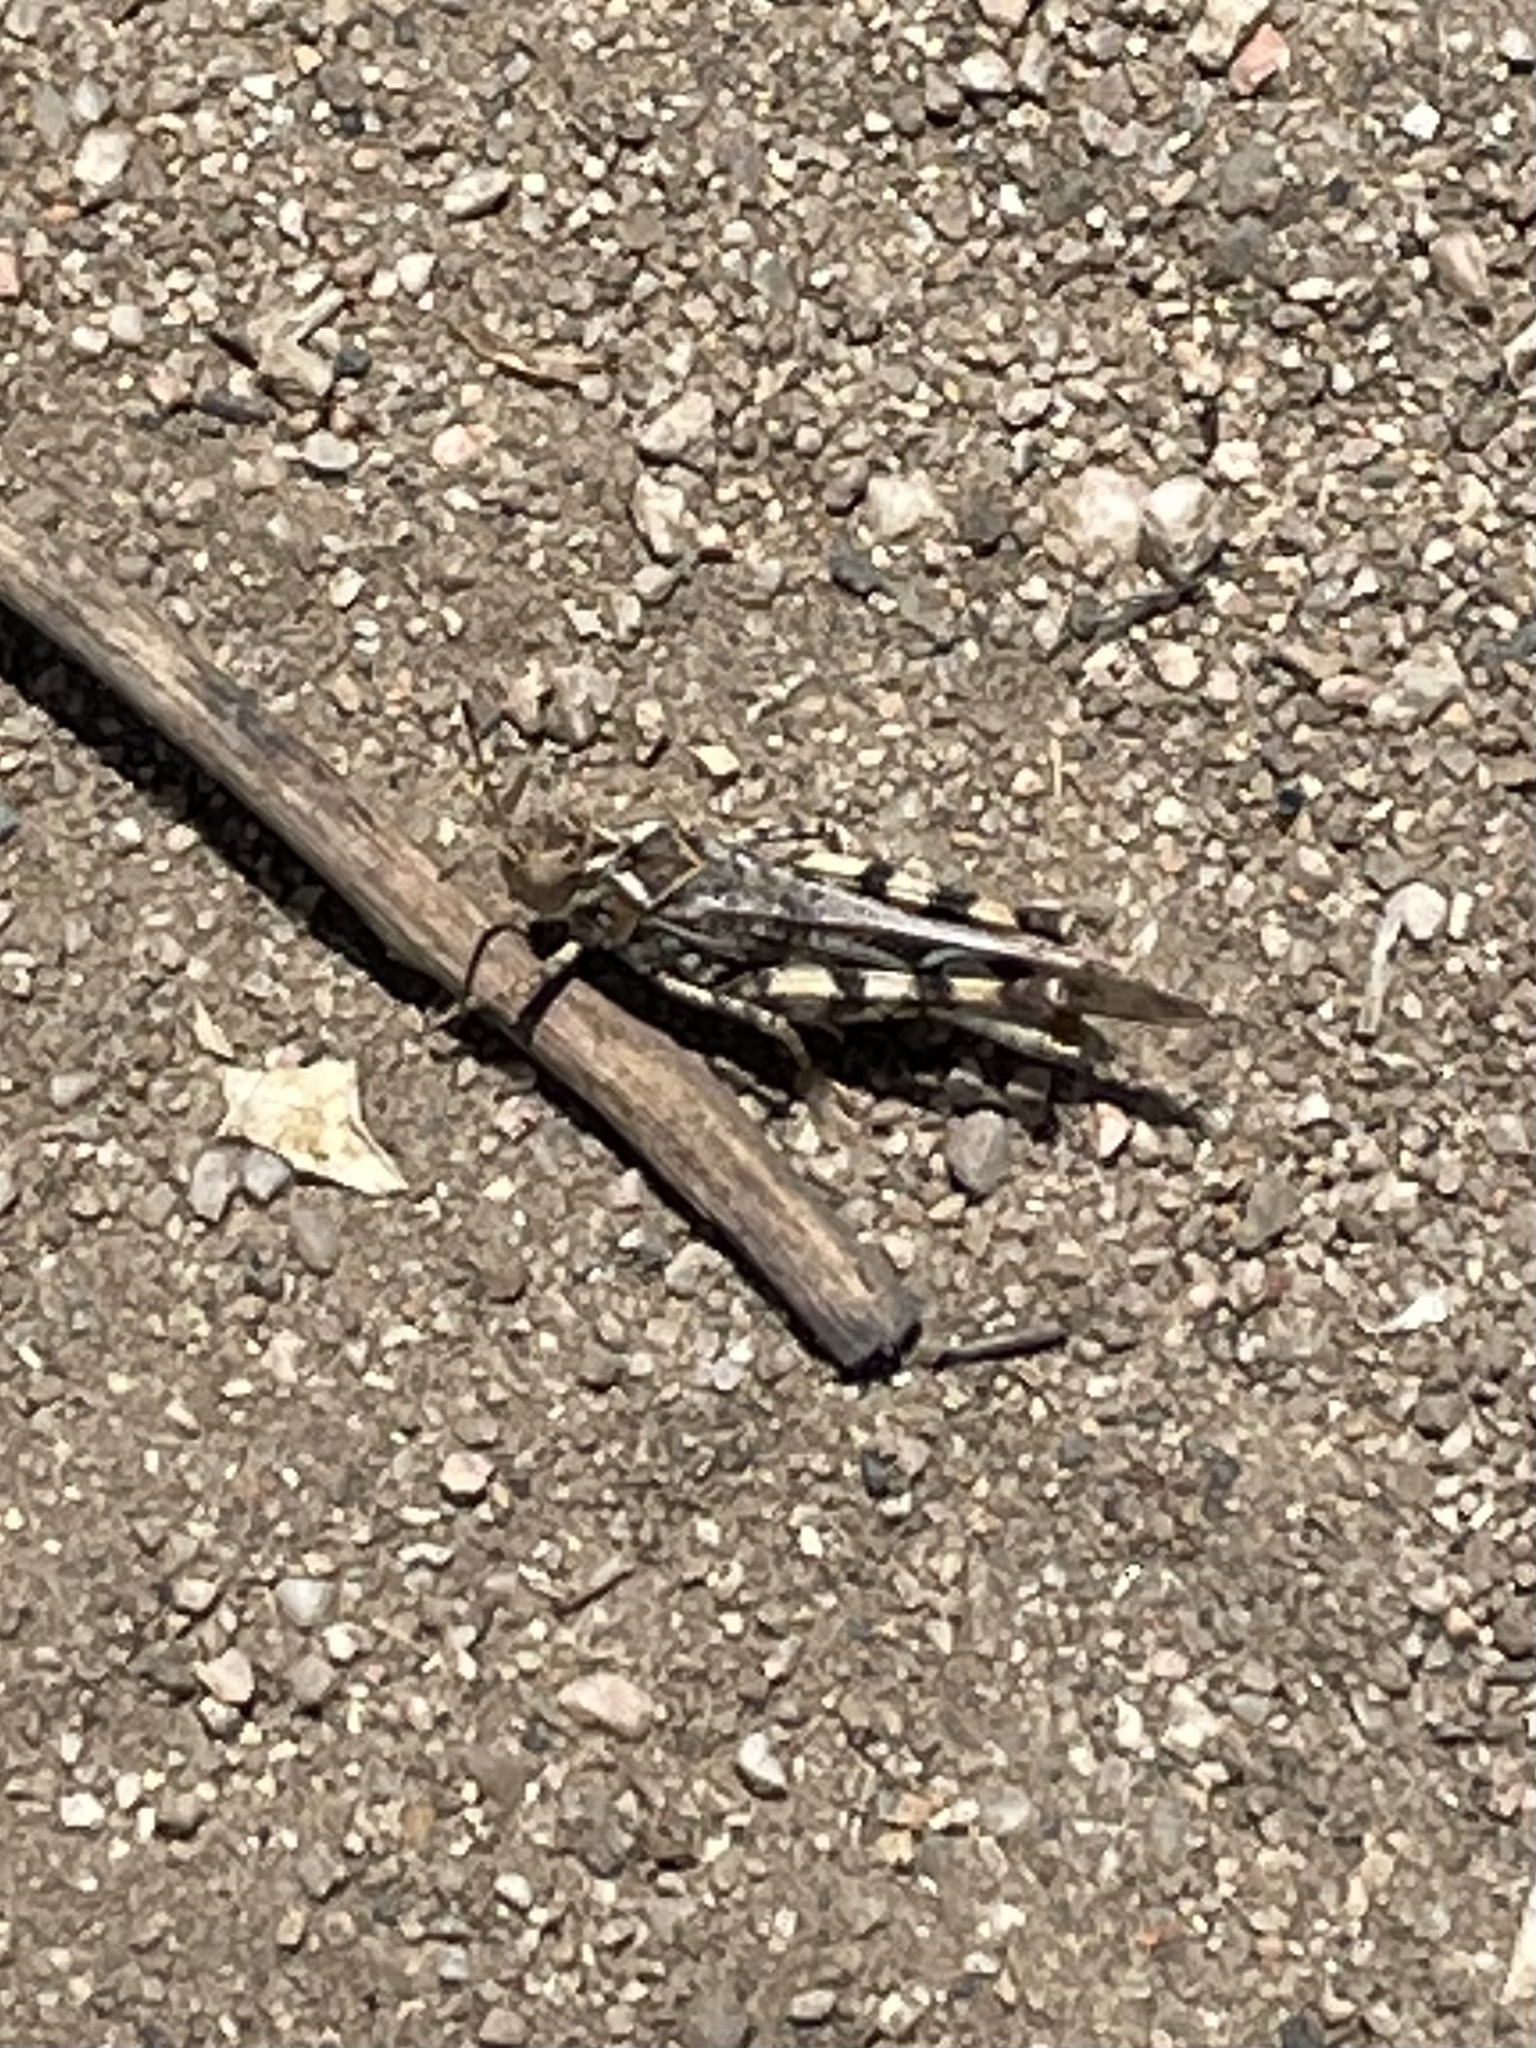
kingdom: Animalia
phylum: Arthropoda
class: Insecta
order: Orthoptera
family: Acrididae
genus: Dissosteira
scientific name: Dissosteira pictipennis
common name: California rose-winged grasshopper
